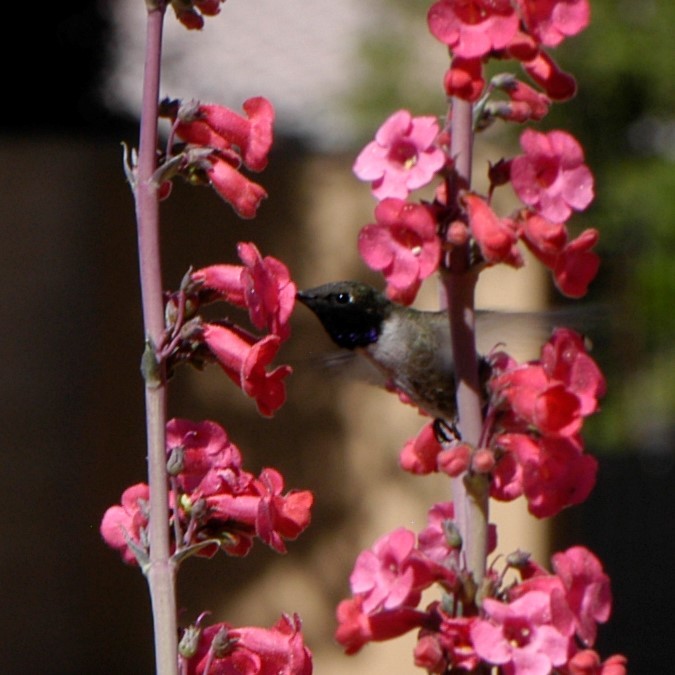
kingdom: Animalia
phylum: Chordata
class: Aves
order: Apodiformes
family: Trochilidae
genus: Archilochus
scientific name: Archilochus alexandri
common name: Black-chinned hummingbird
